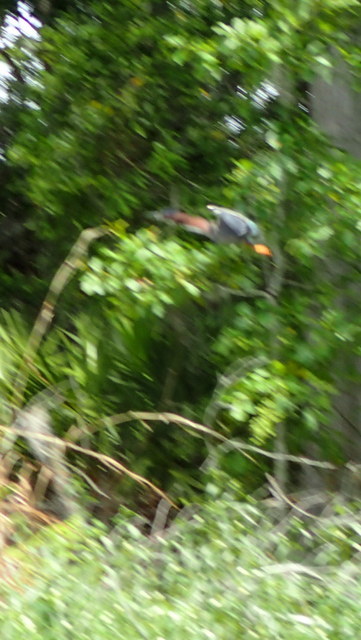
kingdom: Animalia
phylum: Chordata
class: Aves
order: Pelecaniformes
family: Ardeidae
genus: Butorides
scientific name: Butorides virescens
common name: Green heron
